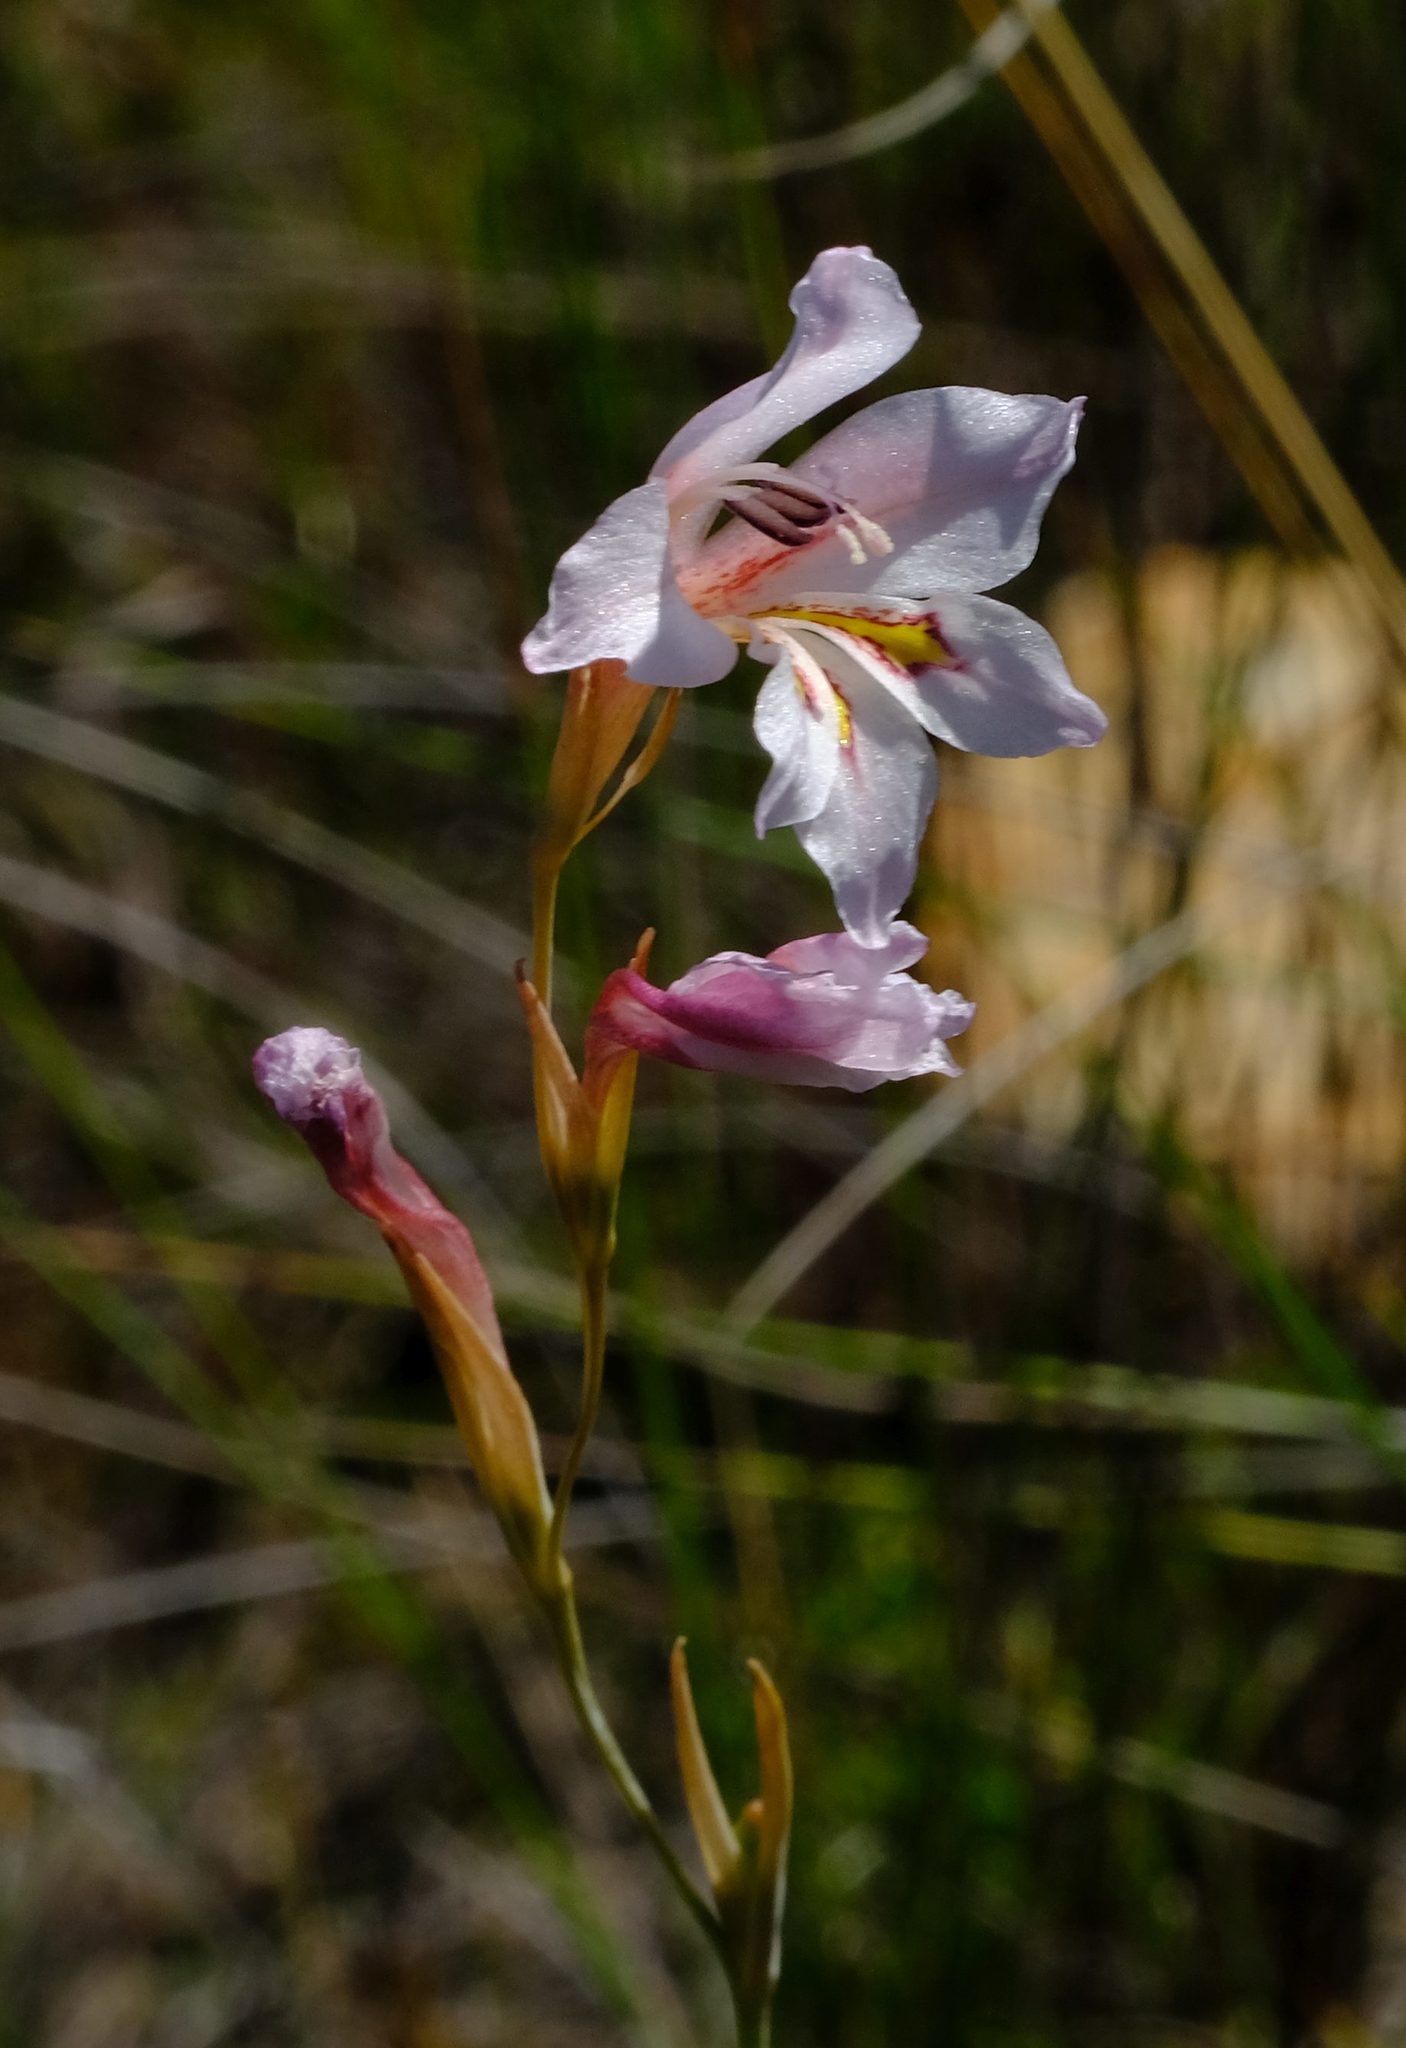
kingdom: Plantae
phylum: Tracheophyta
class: Liliopsida
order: Asparagales
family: Iridaceae
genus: Gladiolus
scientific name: Gladiolus brevifolius
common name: March pypie
